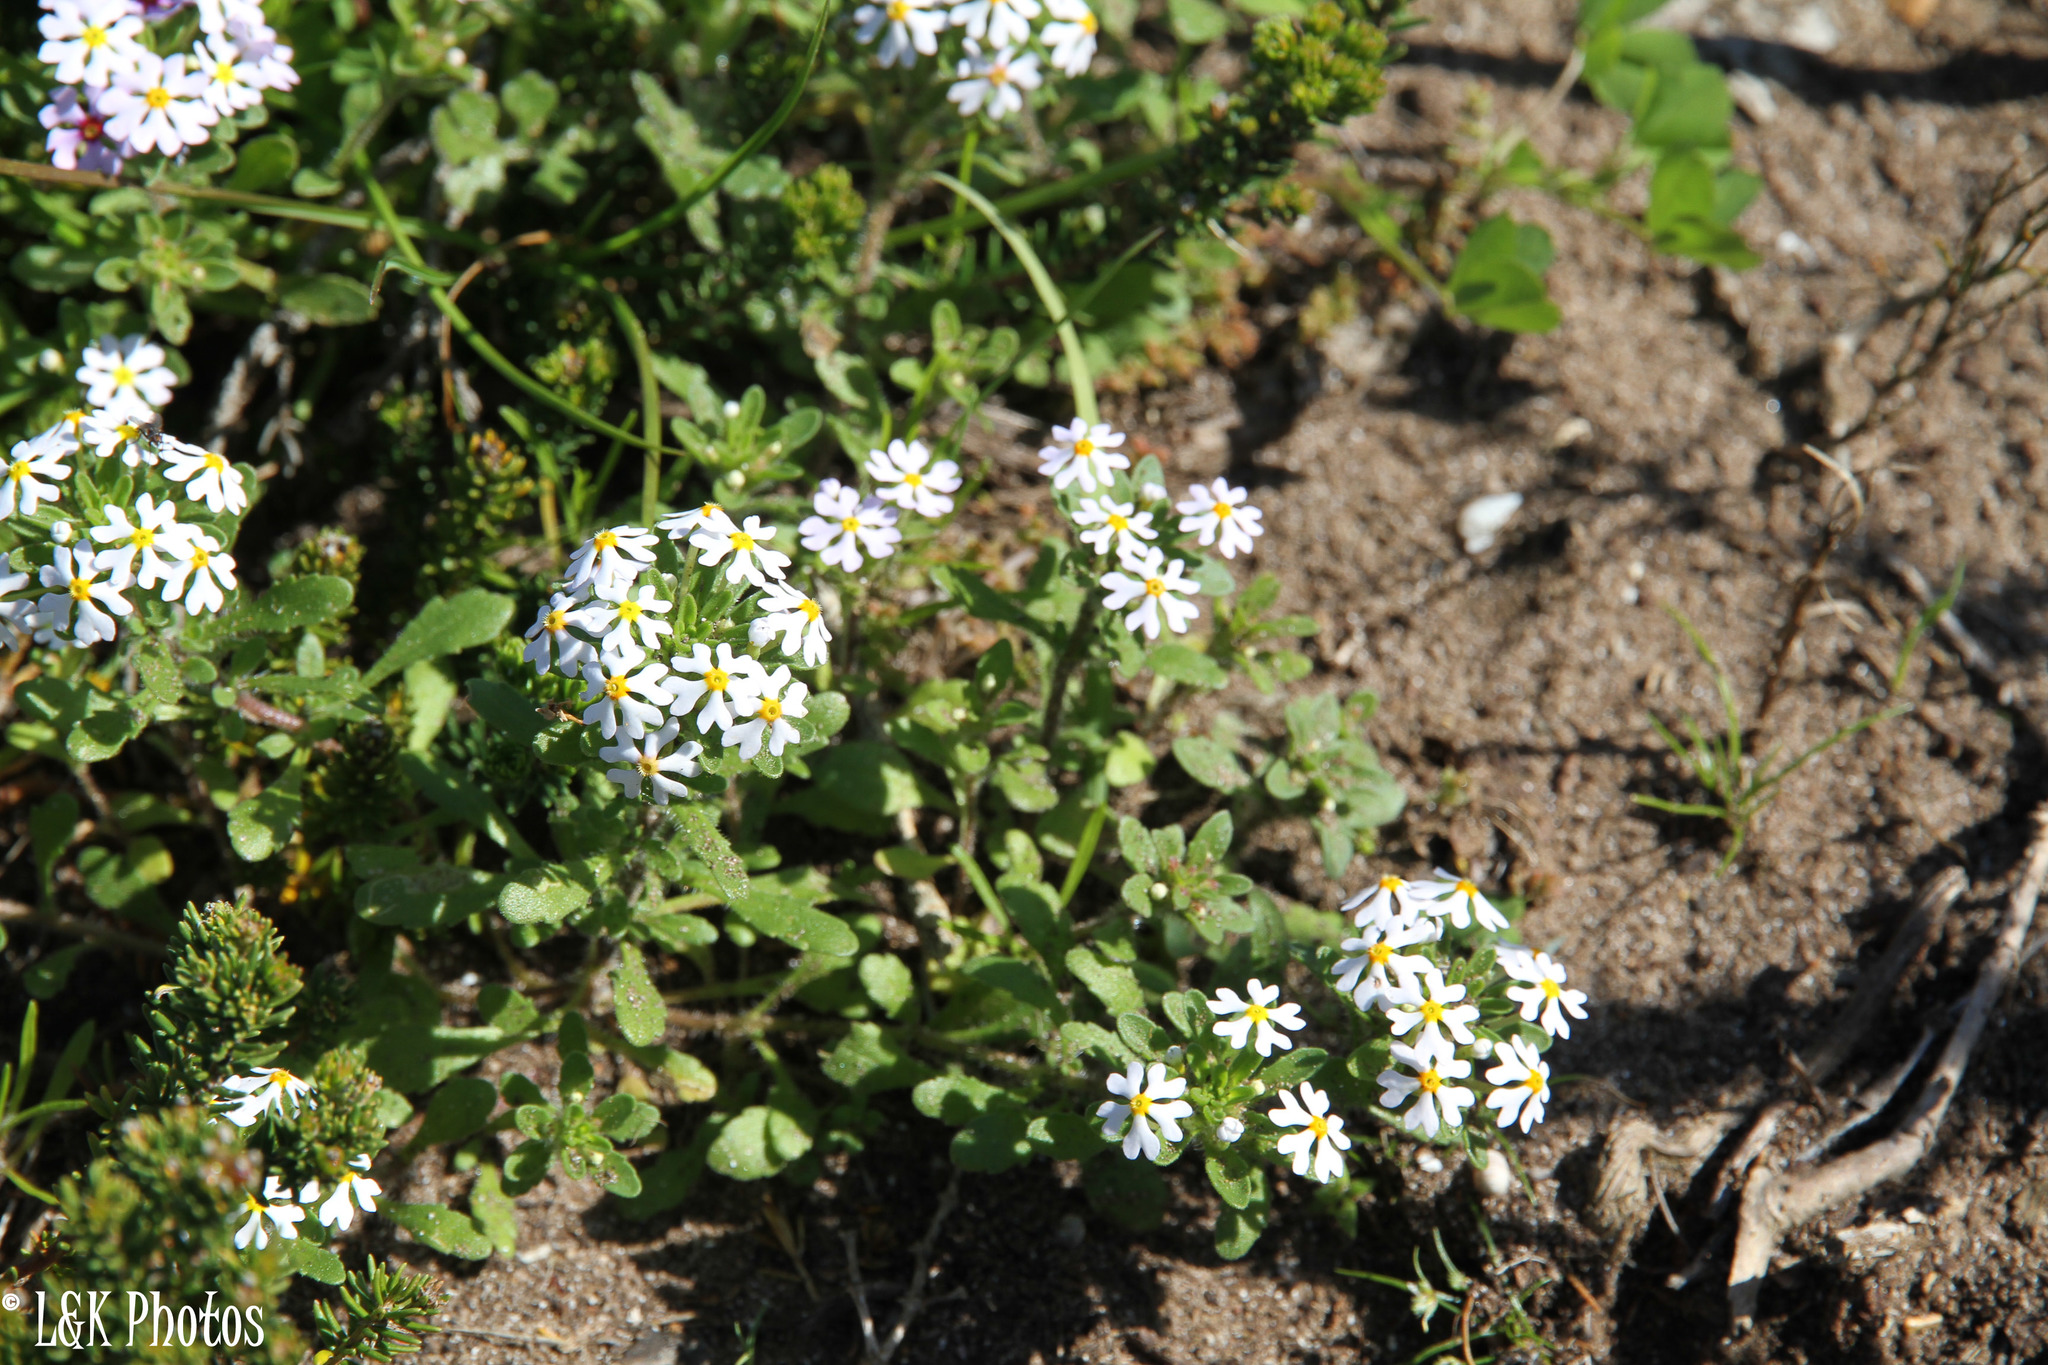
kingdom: Plantae
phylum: Tracheophyta
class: Magnoliopsida
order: Lamiales
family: Scrophulariaceae
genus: Zaluzianskya
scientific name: Zaluzianskya villosa
